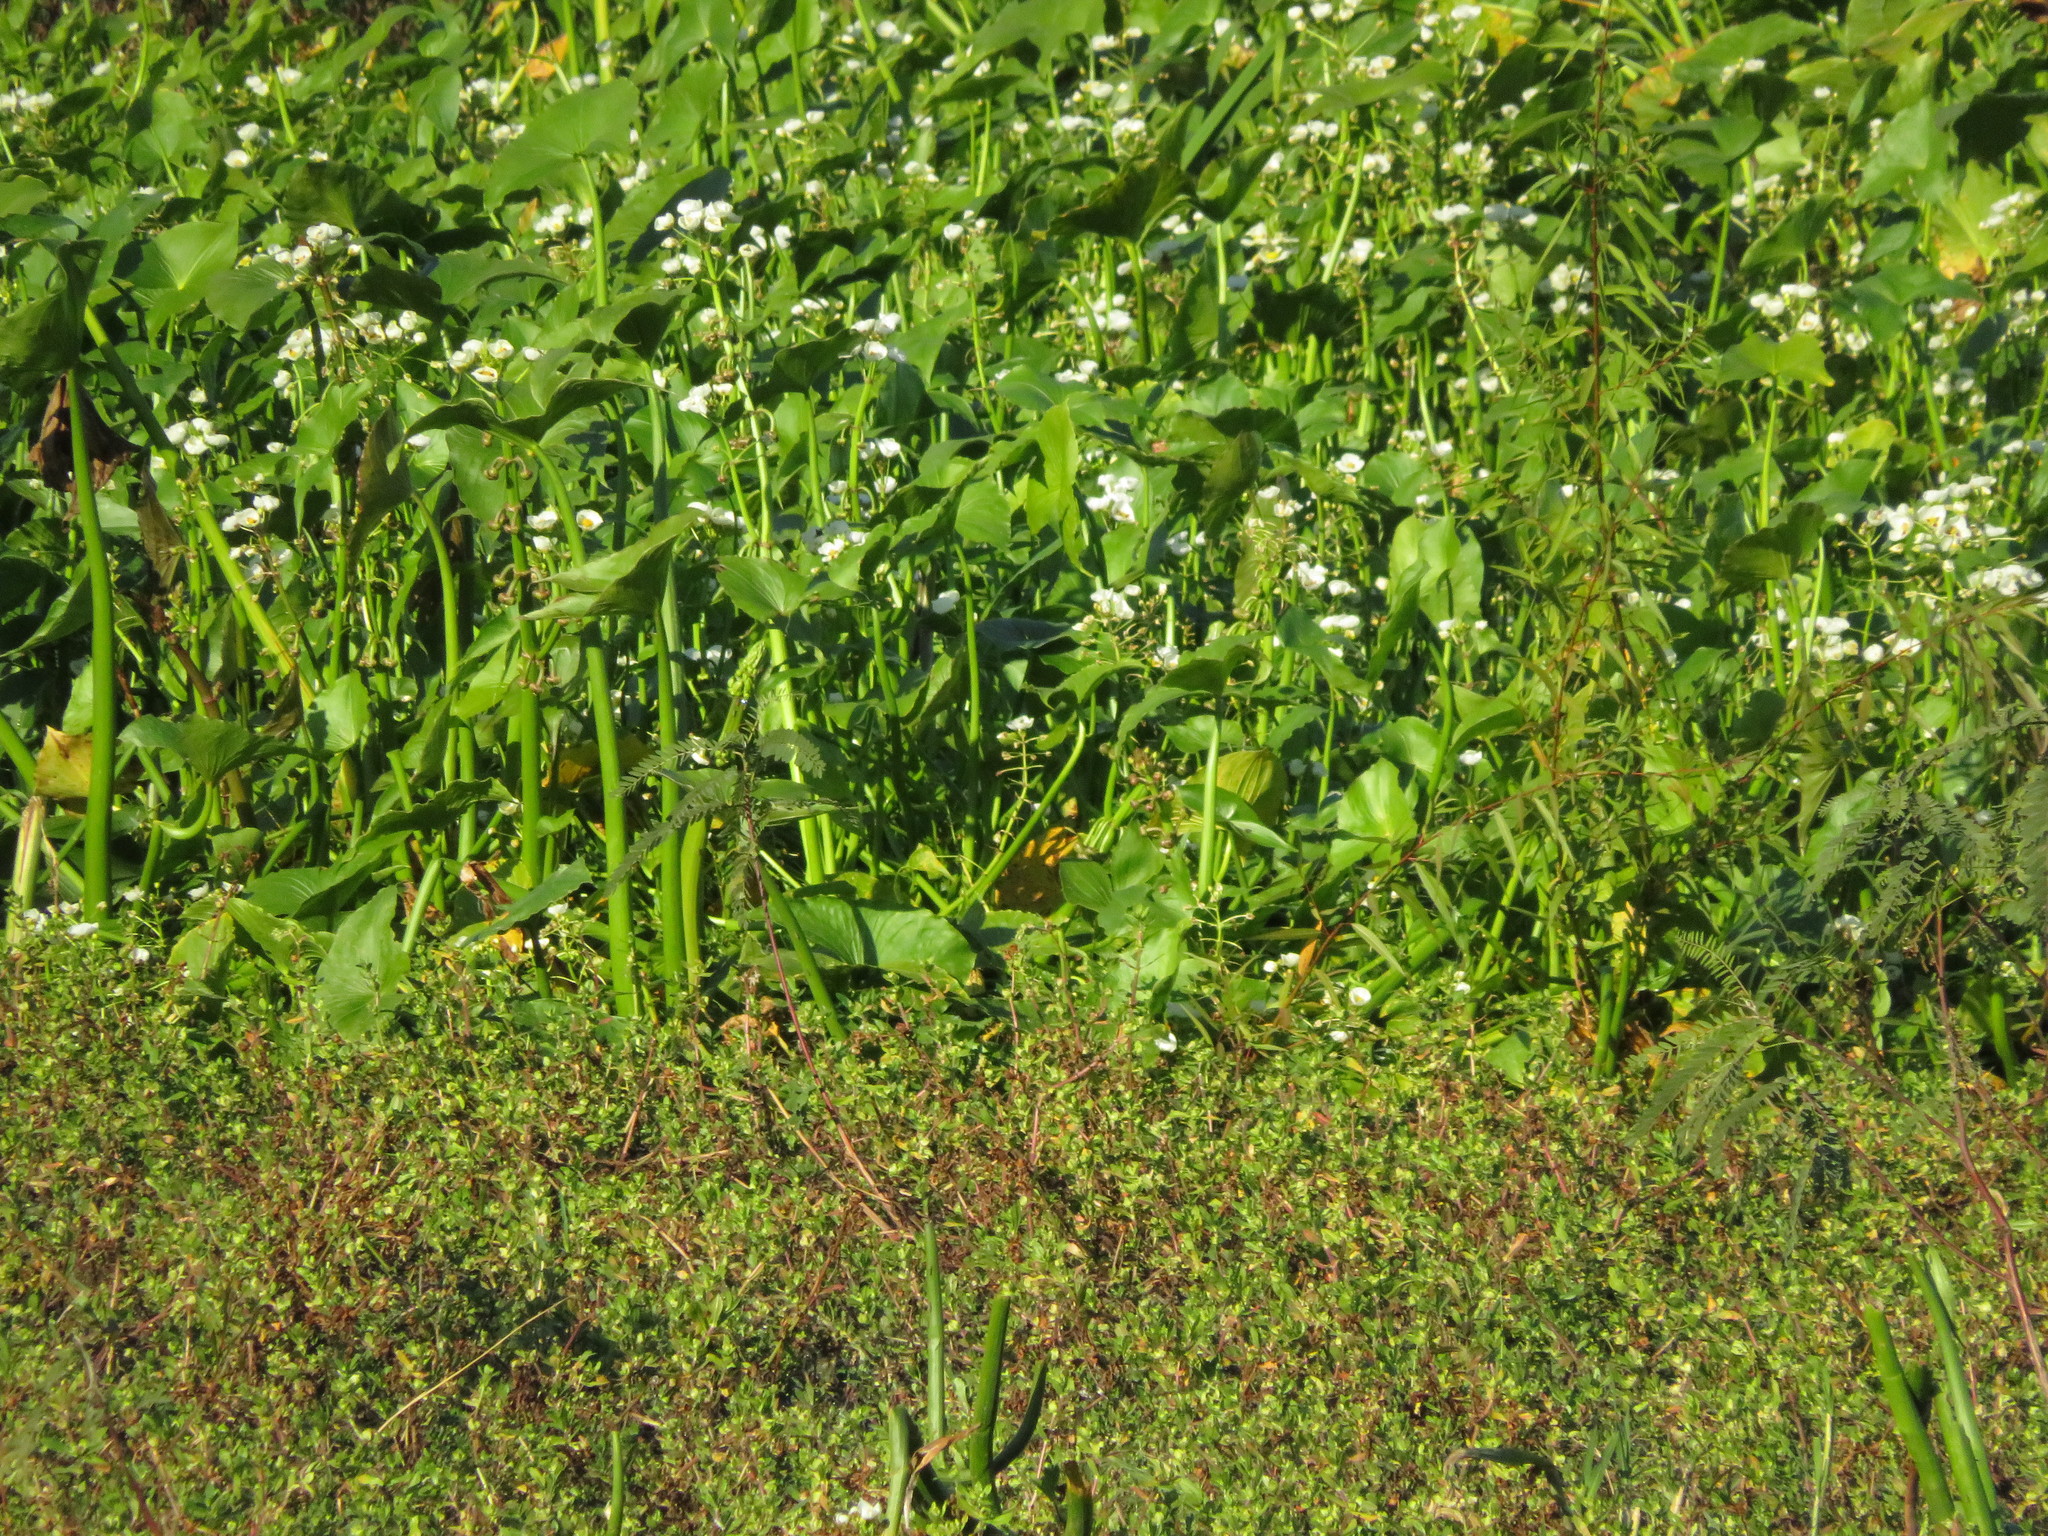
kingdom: Plantae
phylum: Tracheophyta
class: Liliopsida
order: Alismatales
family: Alismataceae
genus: Sagittaria
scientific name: Sagittaria montevidensis
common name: Giant arrowhead
